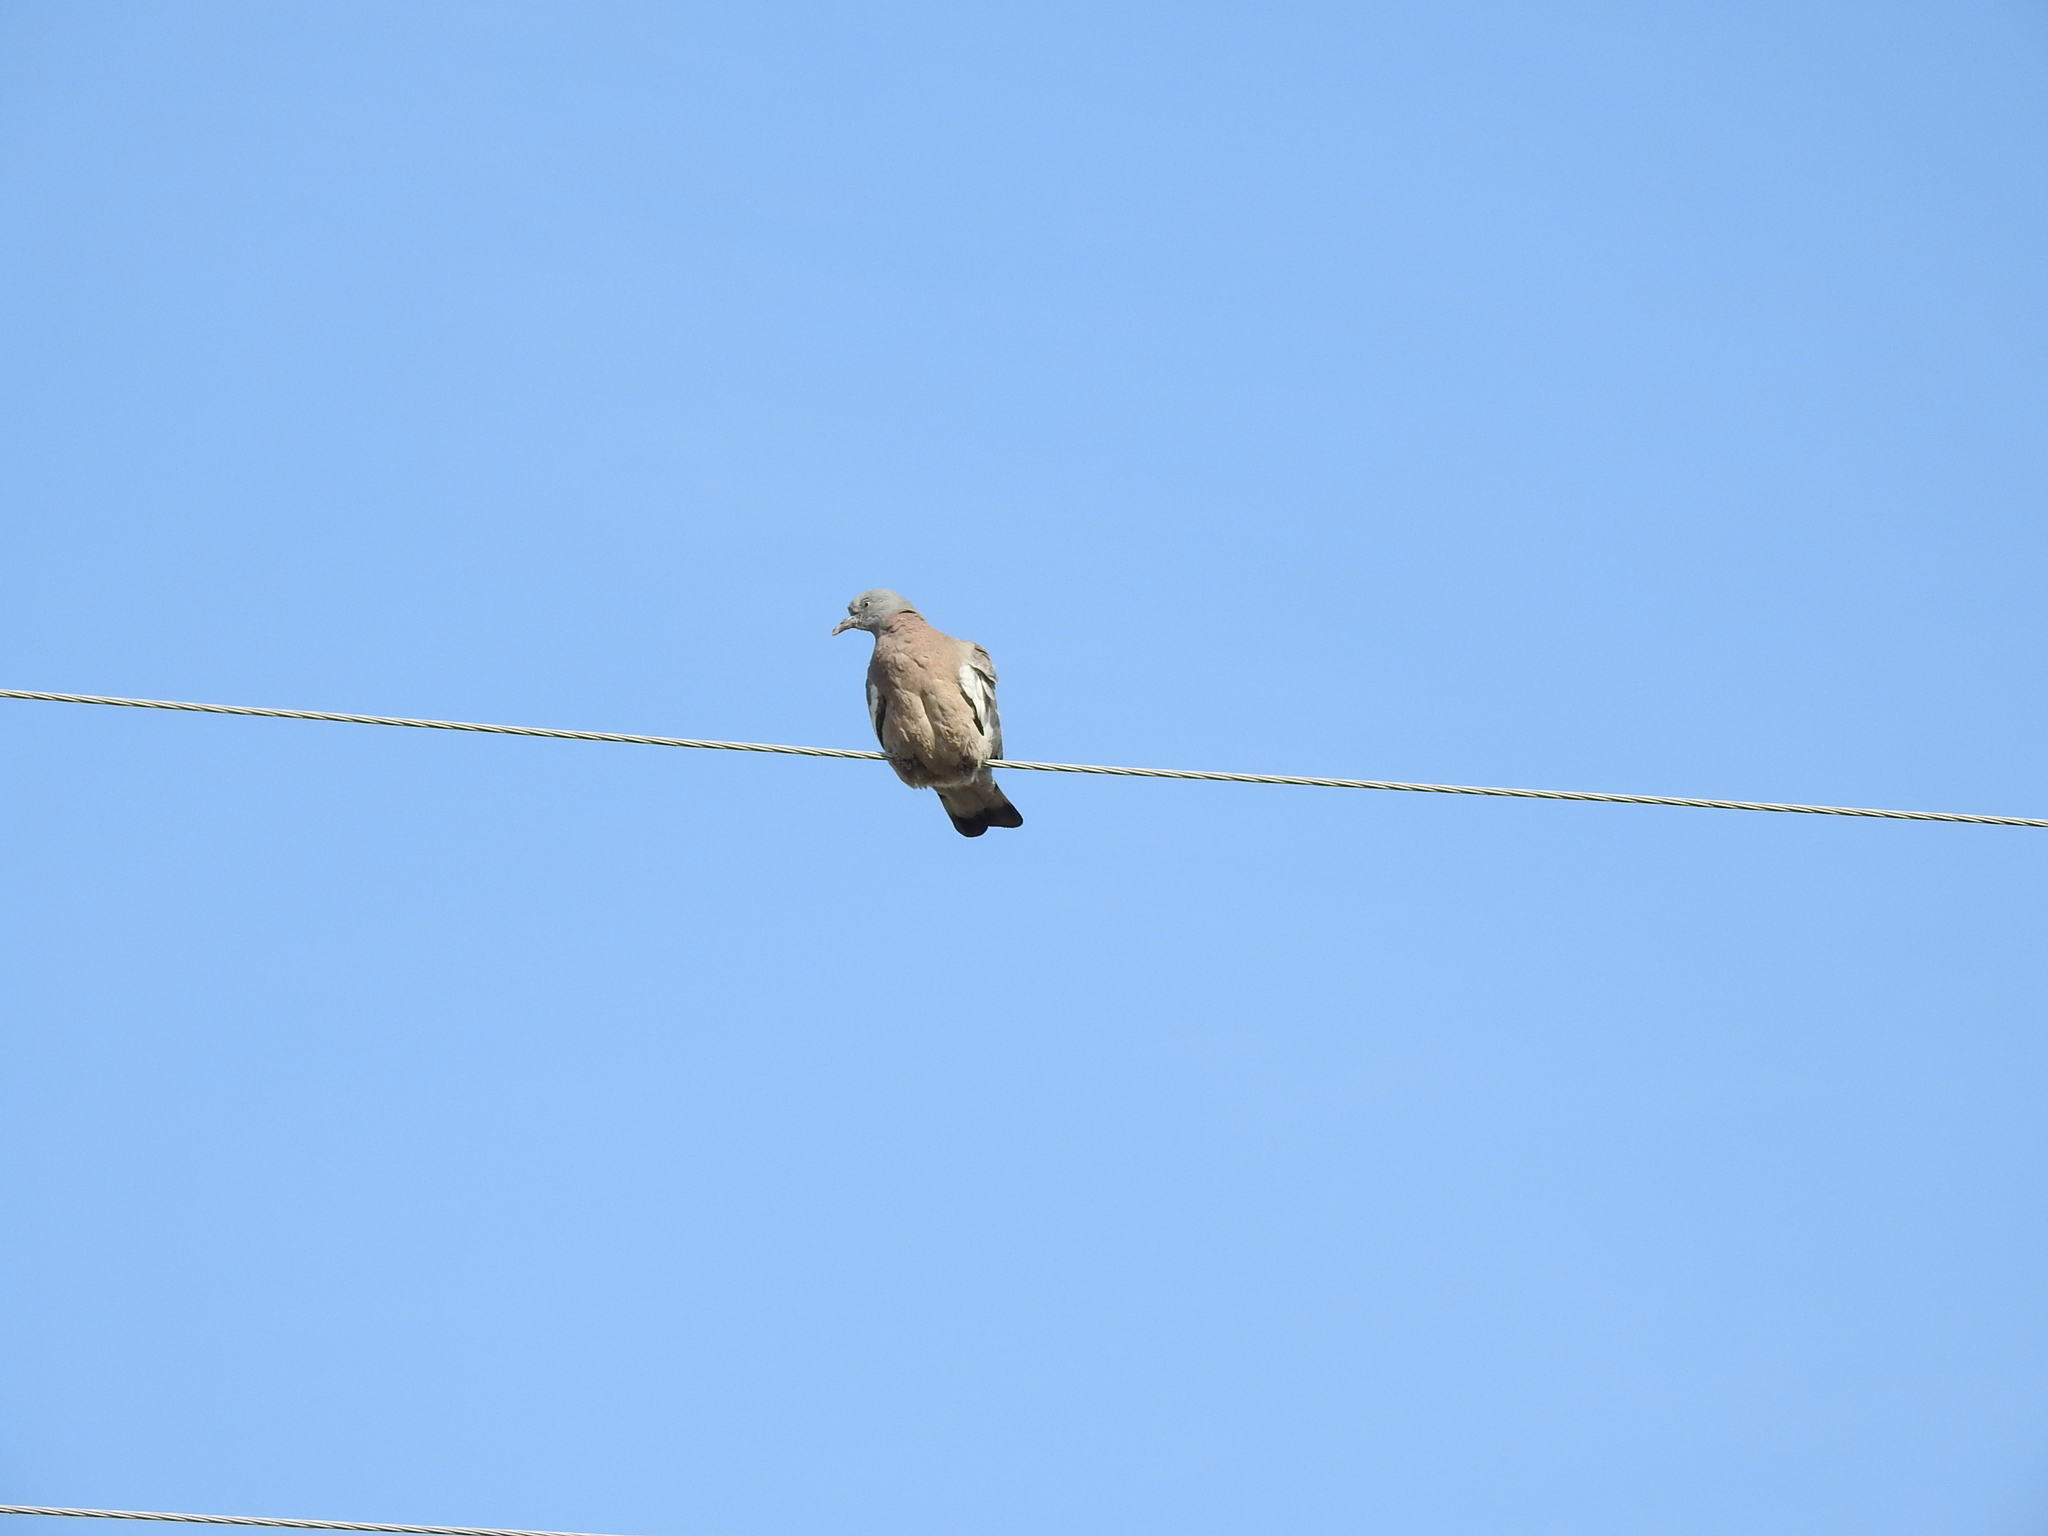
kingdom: Animalia
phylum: Chordata
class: Aves
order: Columbiformes
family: Columbidae
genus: Columba
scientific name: Columba palumbus
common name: Common wood pigeon
